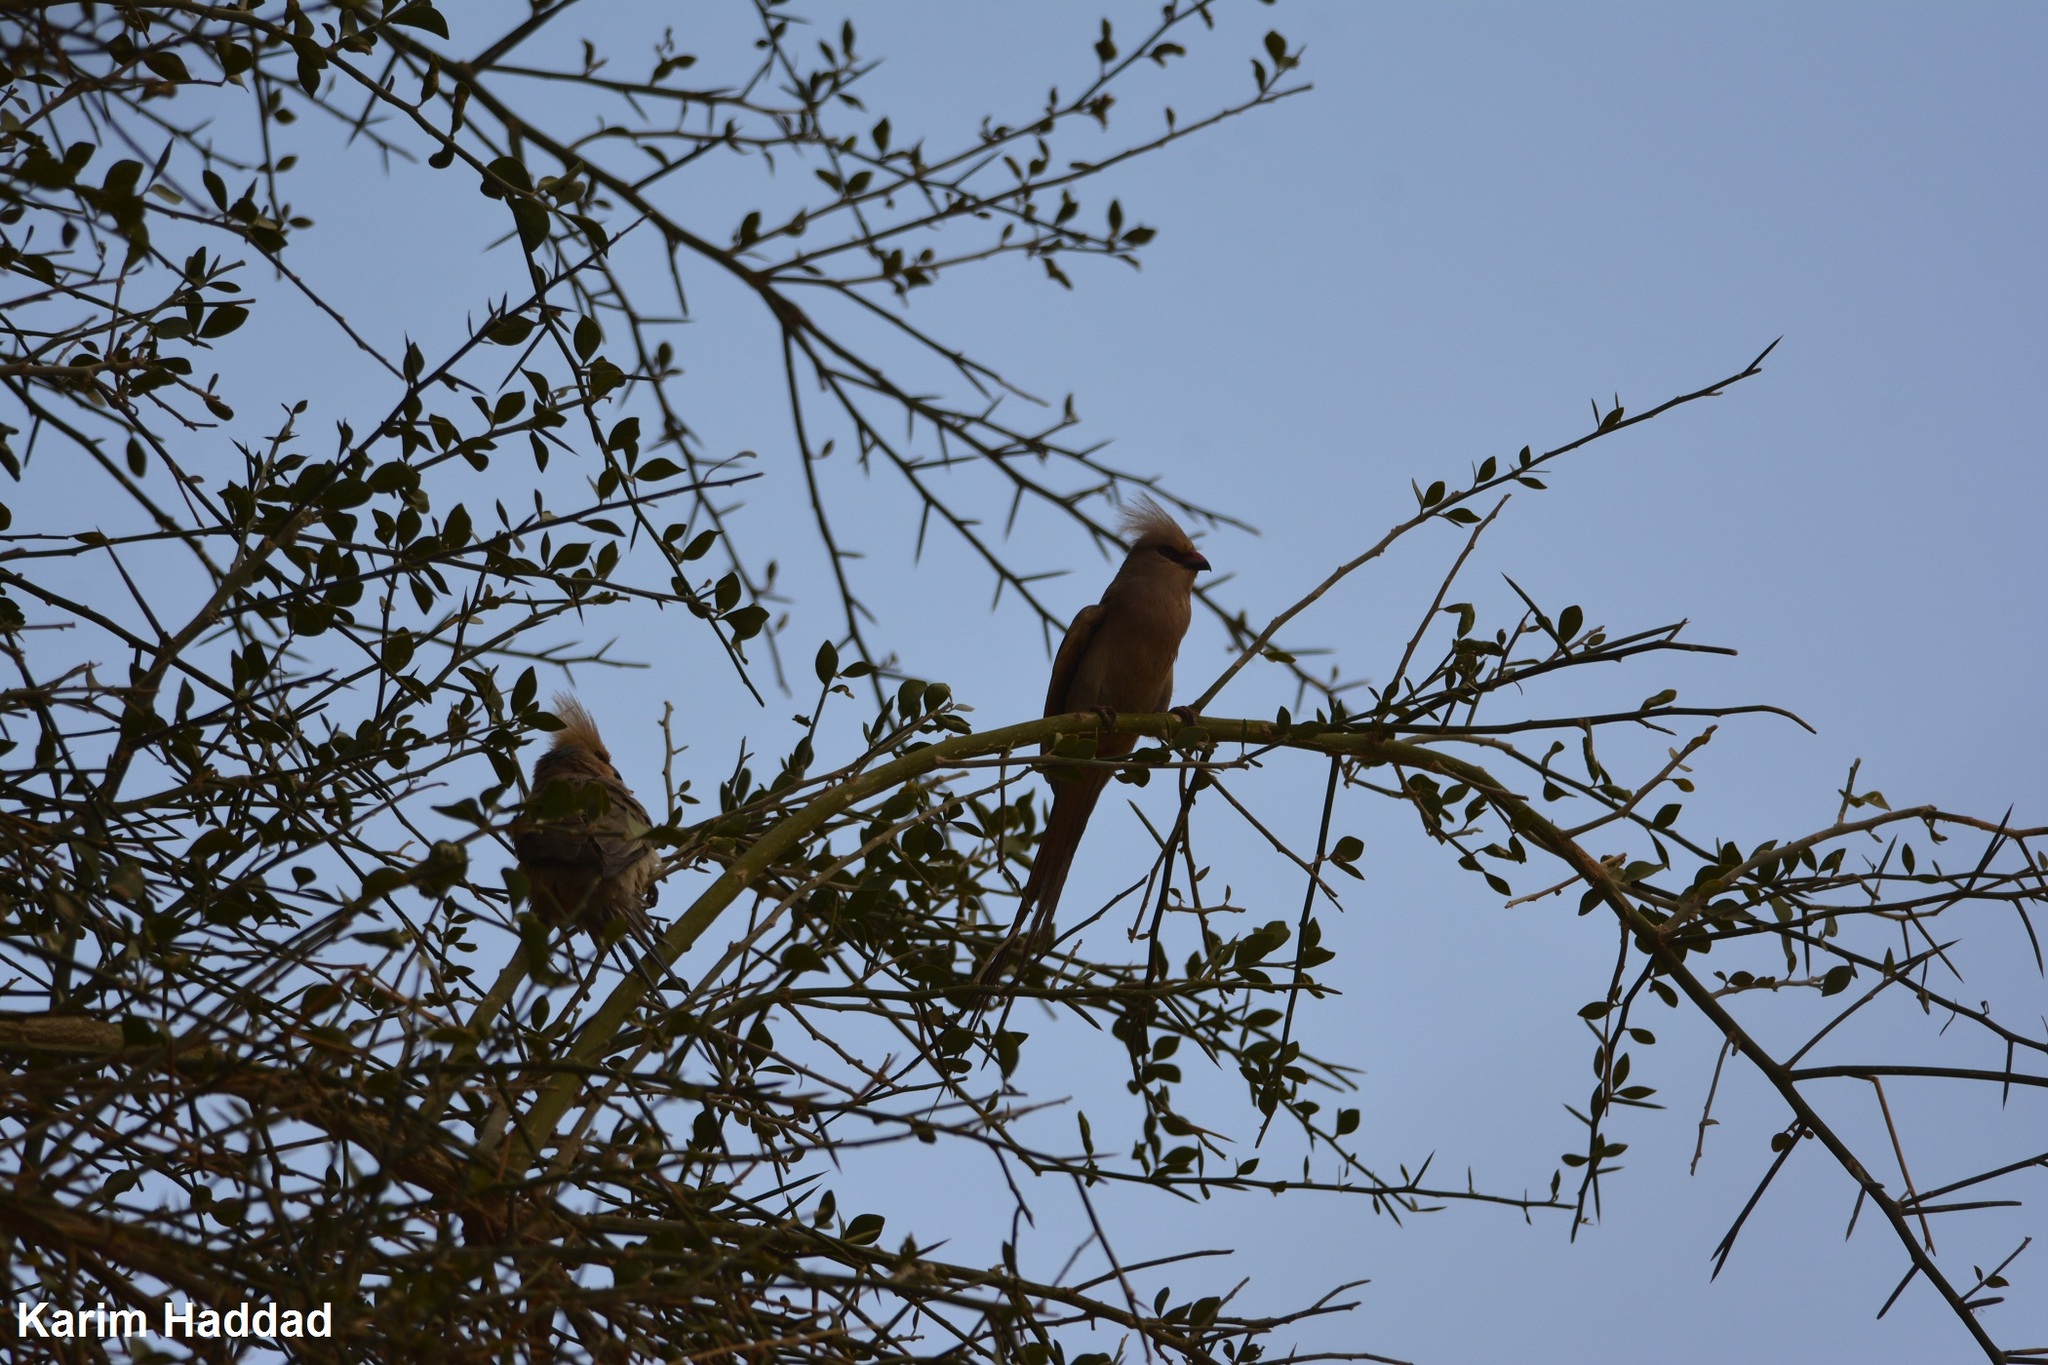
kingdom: Animalia
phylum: Chordata
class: Aves
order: Coliiformes
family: Coliidae
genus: Urocolius
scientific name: Urocolius macrourus
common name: Blue-naped mousebird
